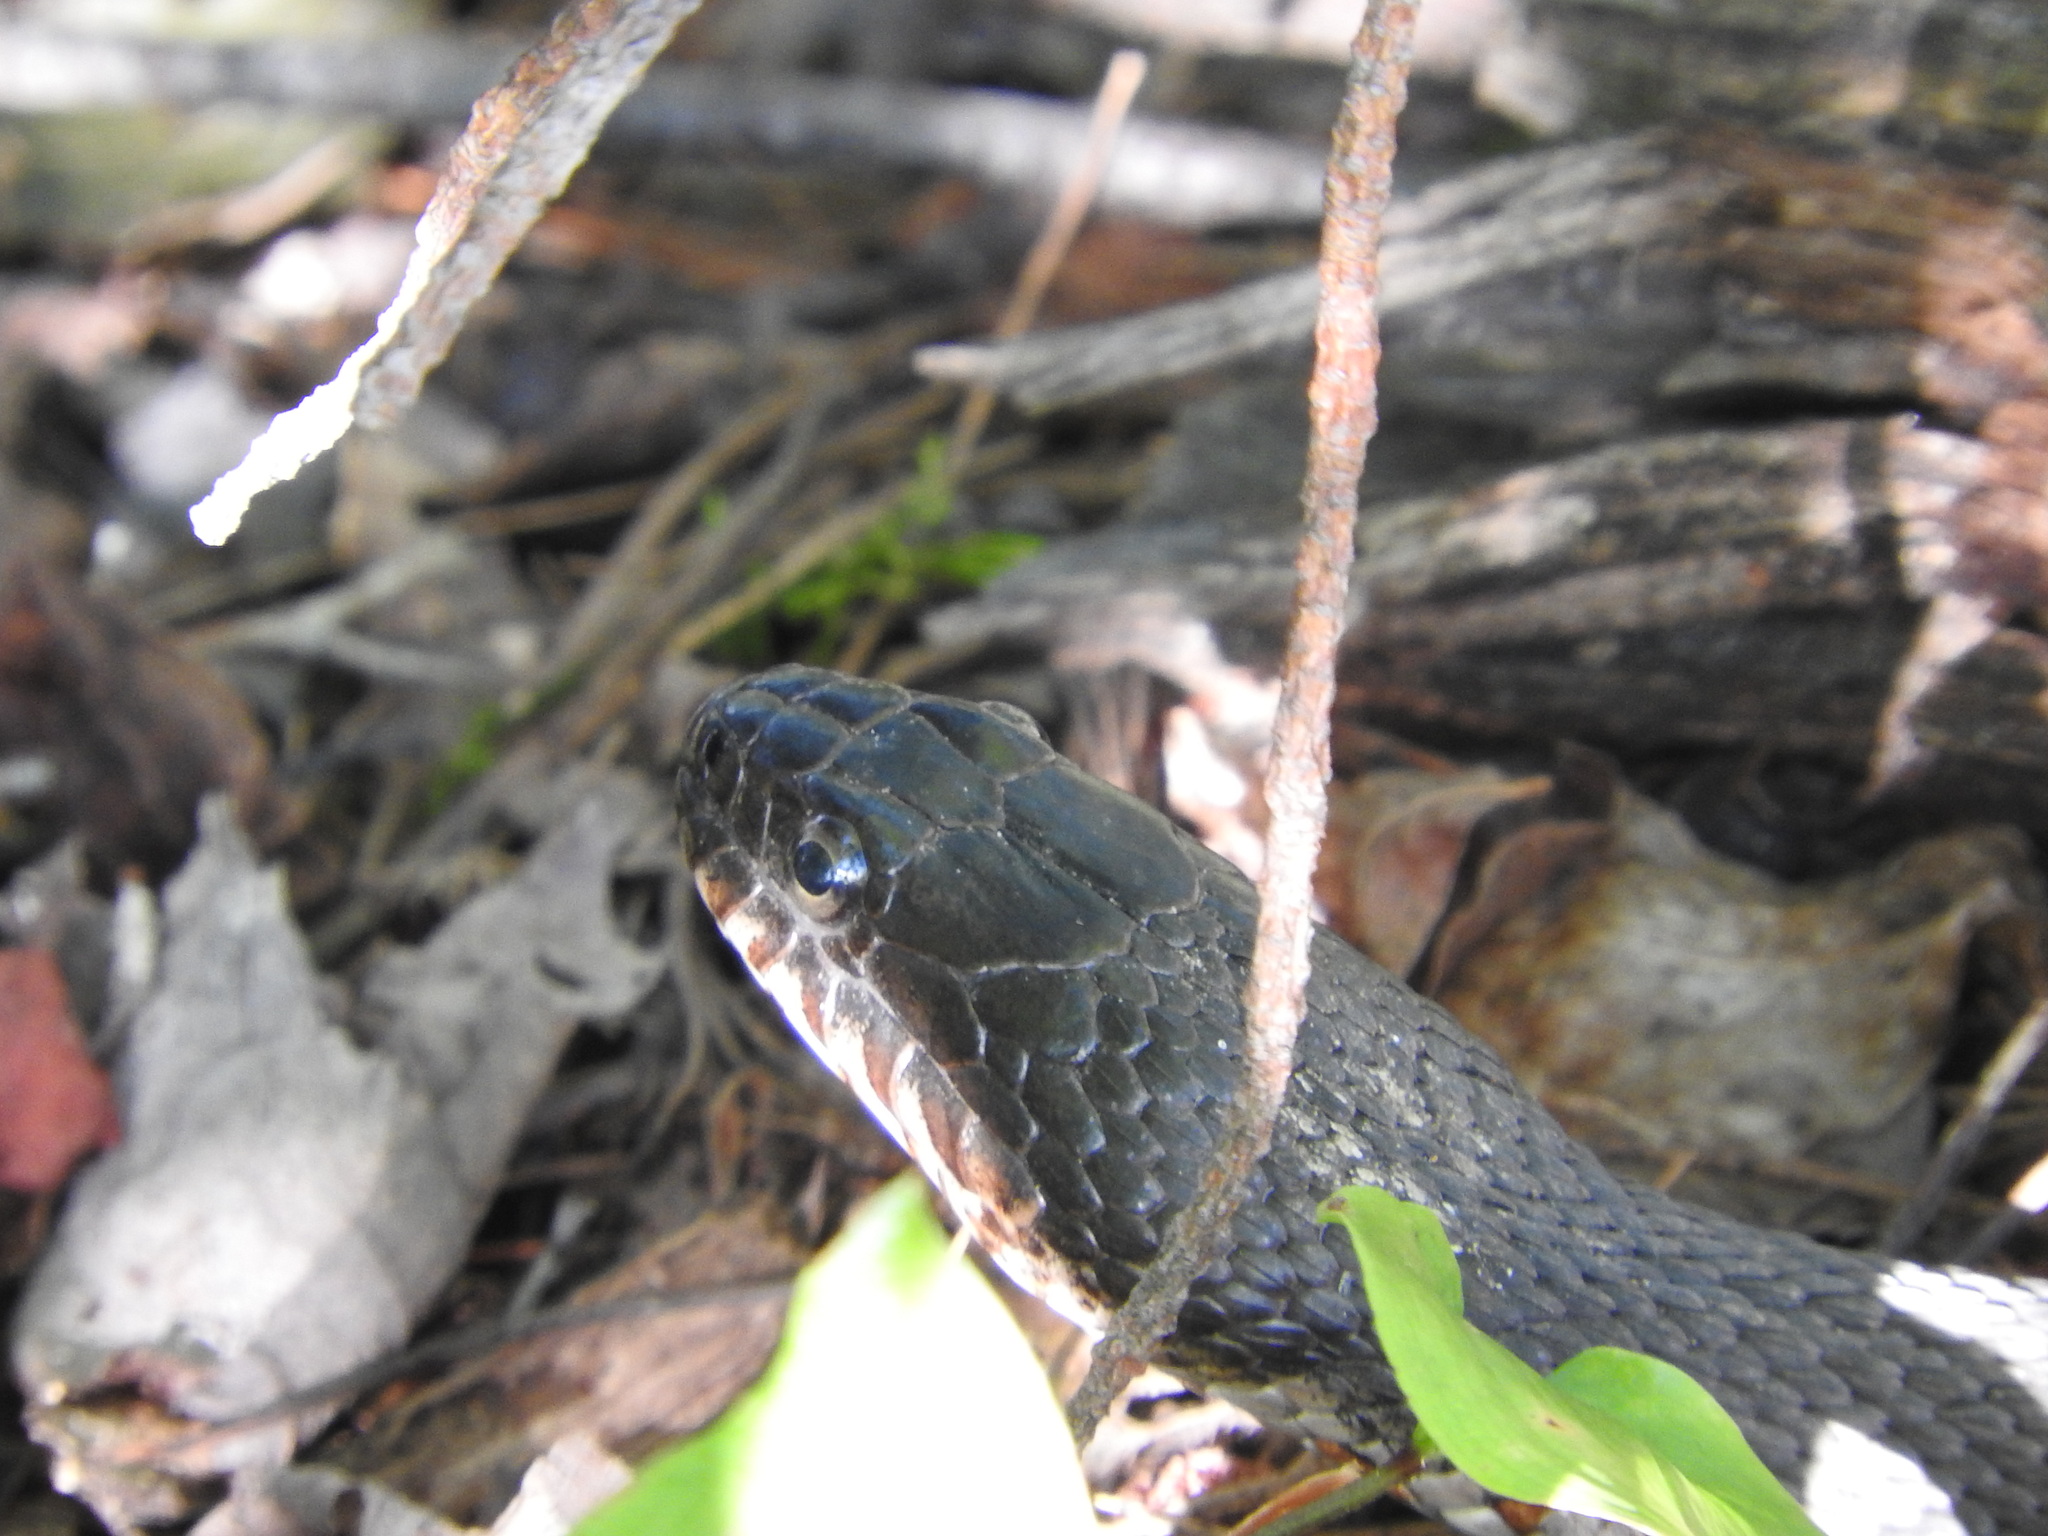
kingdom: Animalia
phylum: Chordata
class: Squamata
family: Colubridae
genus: Nerodia
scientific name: Nerodia sipedon
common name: Northern water snake
